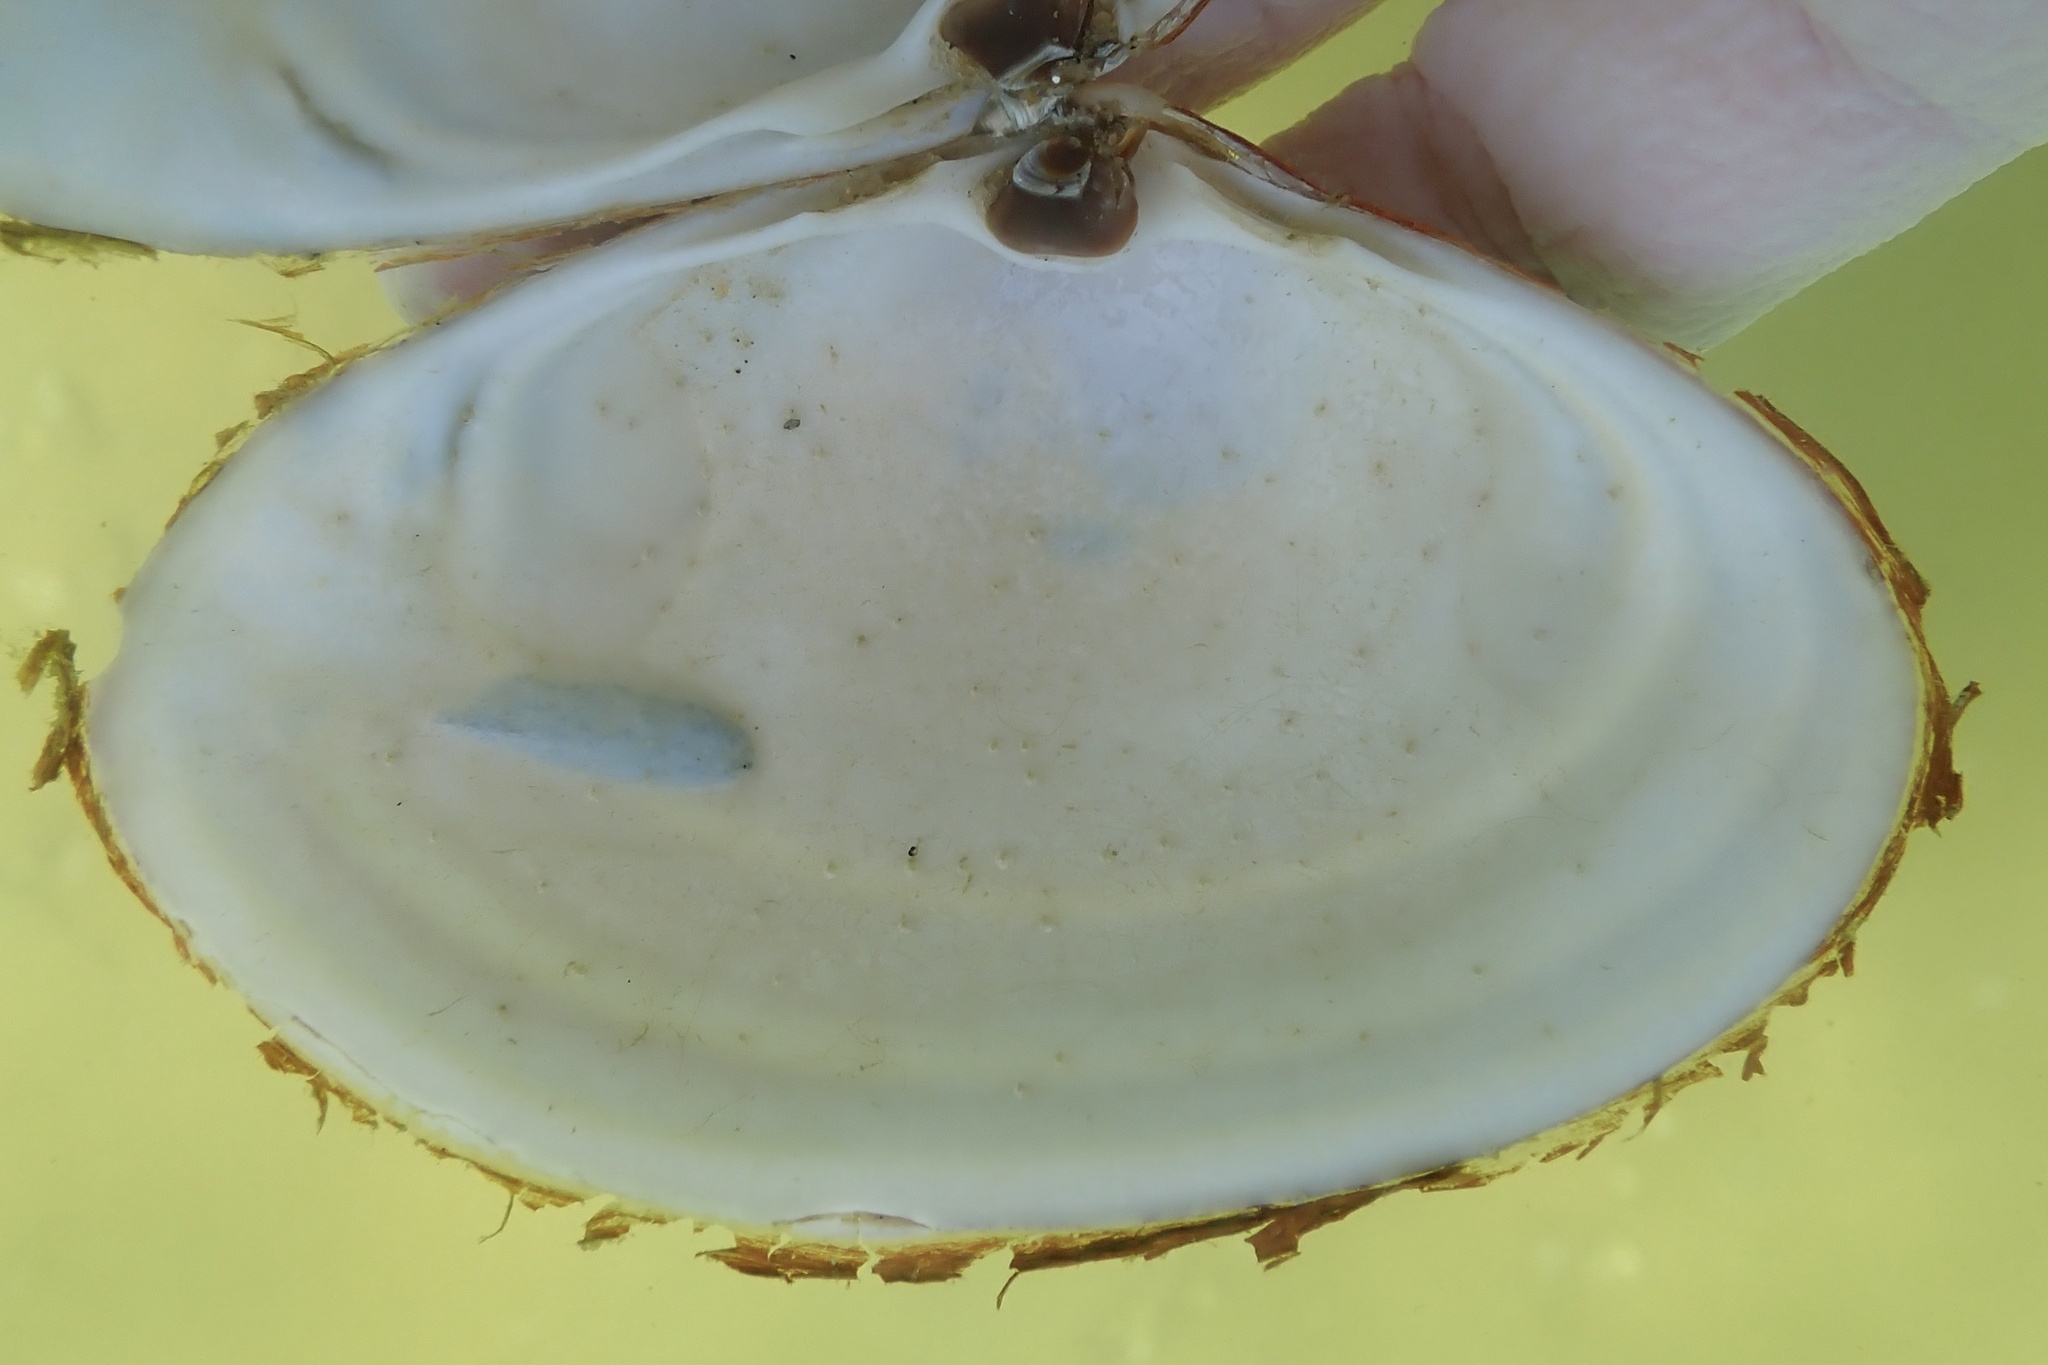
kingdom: Animalia
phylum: Mollusca
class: Bivalvia
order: Venerida
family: Mactridae
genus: Spisula
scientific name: Spisula solidissima
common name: Atlantic surf clam
